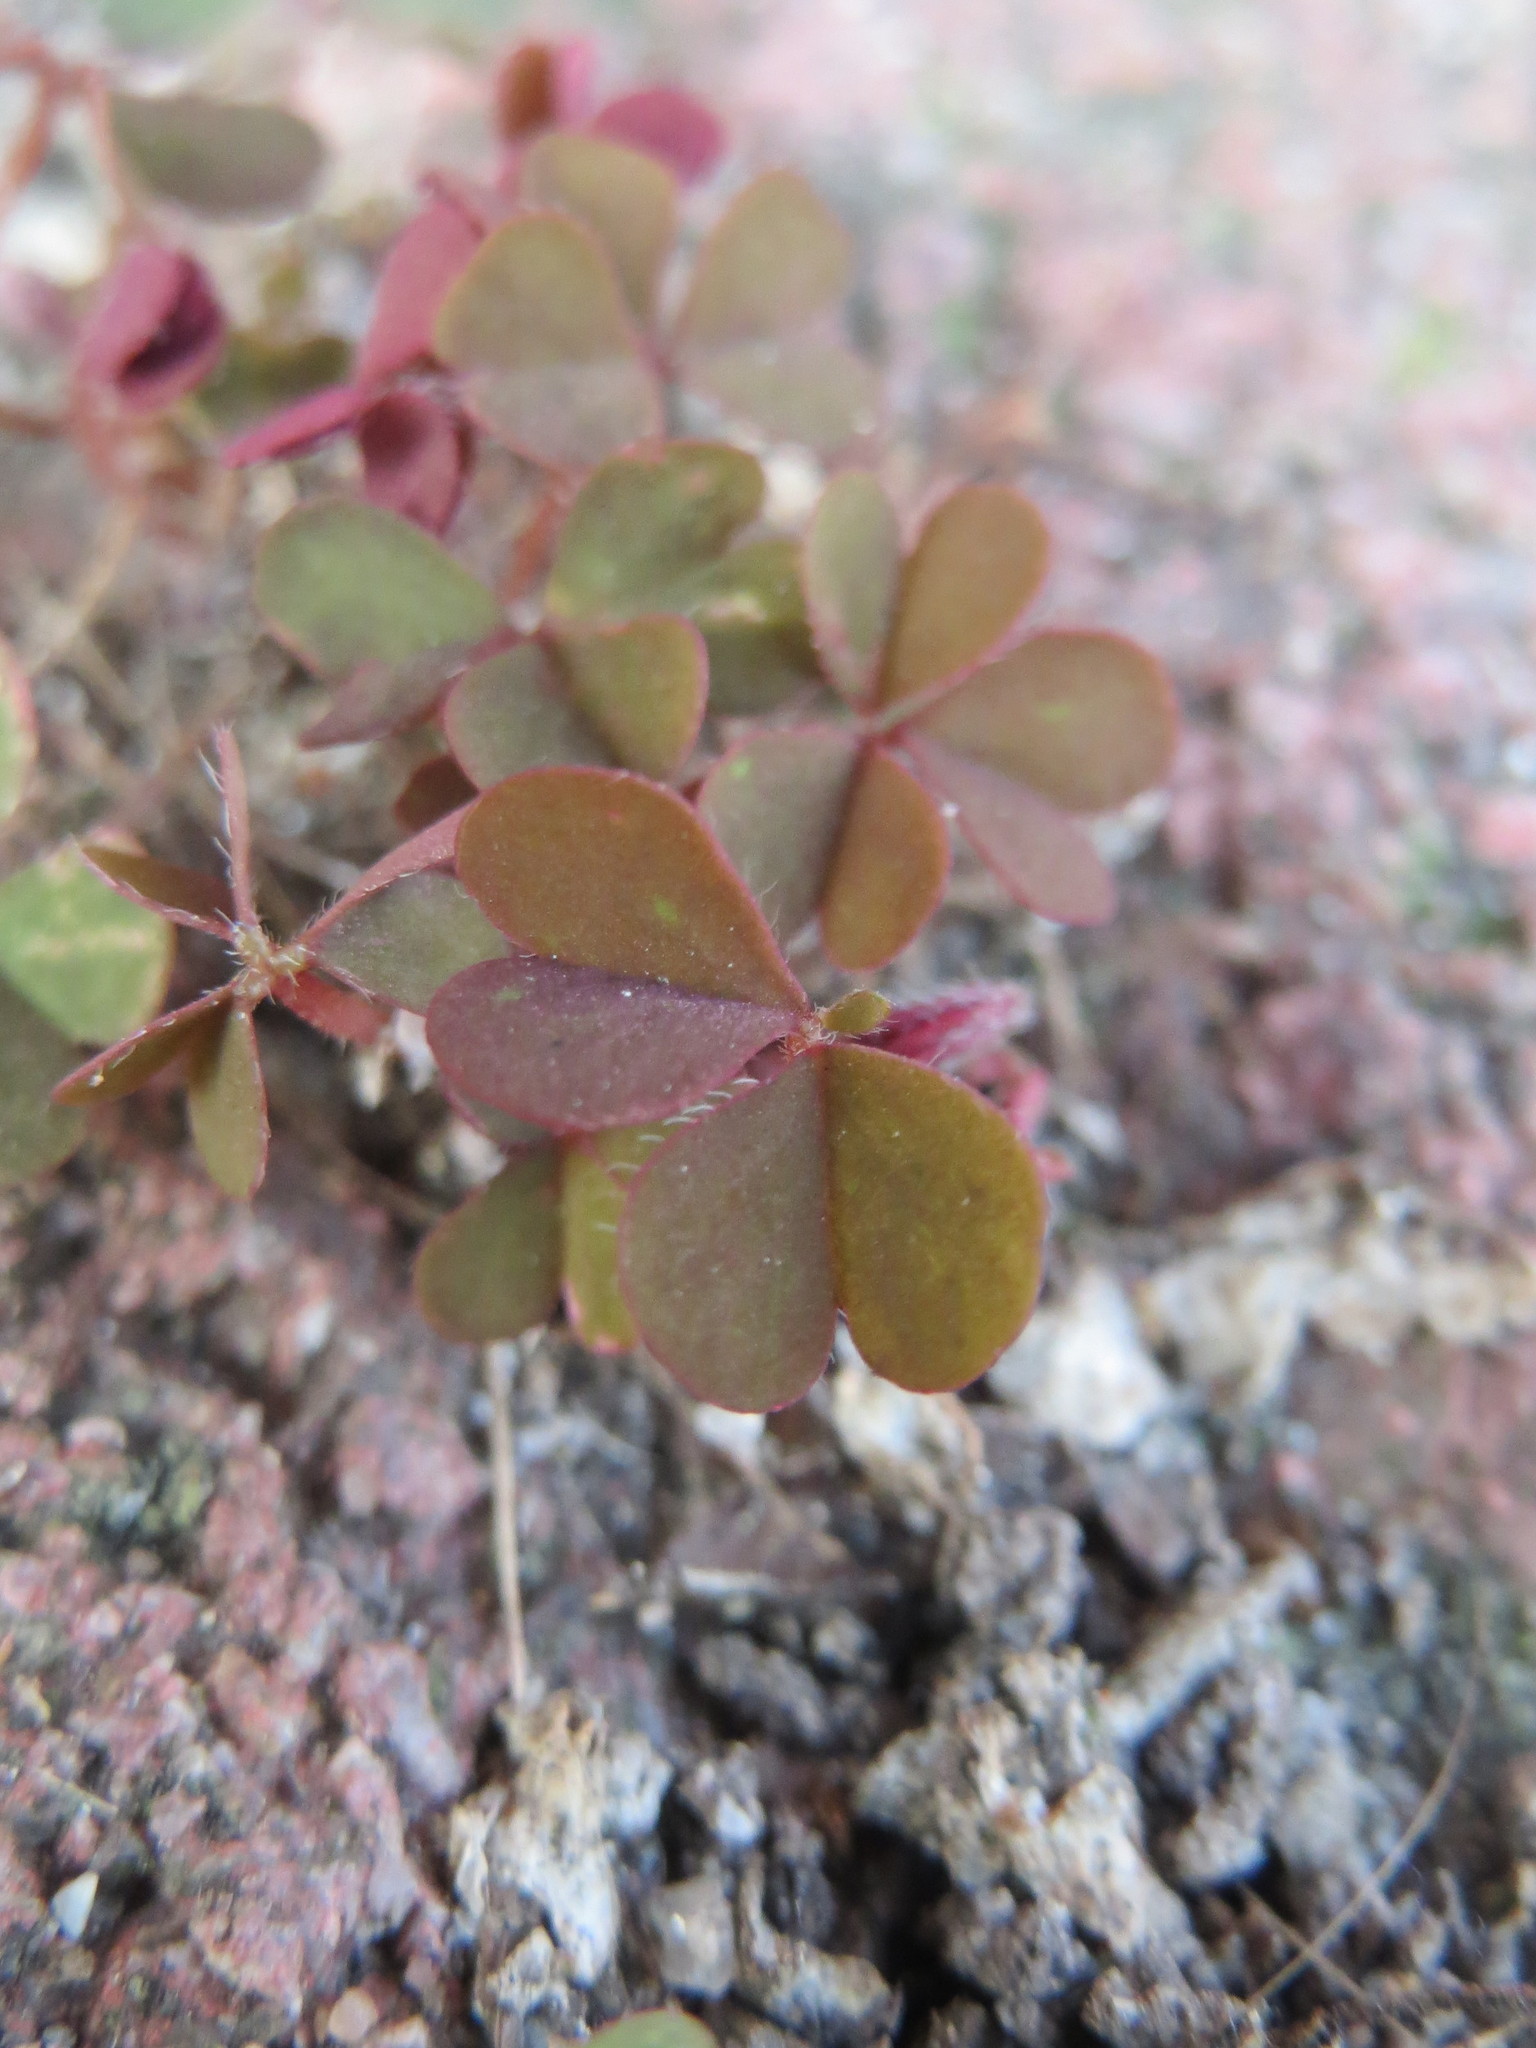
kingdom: Plantae
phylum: Tracheophyta
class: Magnoliopsida
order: Oxalidales
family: Oxalidaceae
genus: Oxalis
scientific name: Oxalis corniculata
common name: Procumbent yellow-sorrel
